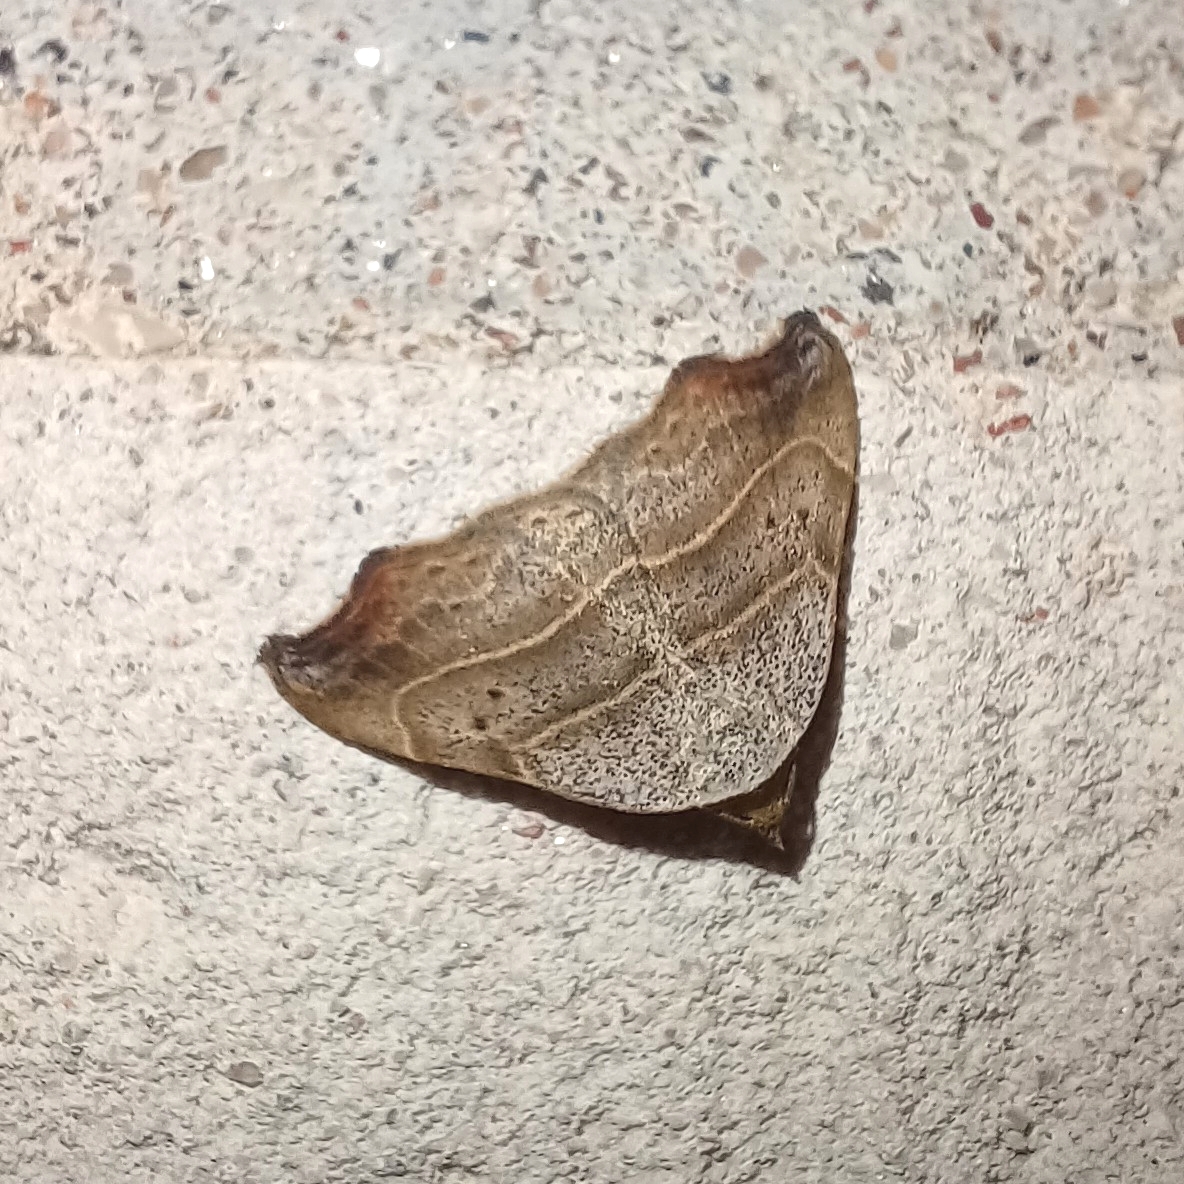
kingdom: Animalia
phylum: Arthropoda
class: Insecta
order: Lepidoptera
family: Erebidae
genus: Laspeyria
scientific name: Laspeyria flexula
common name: Beautiful hook-tip
